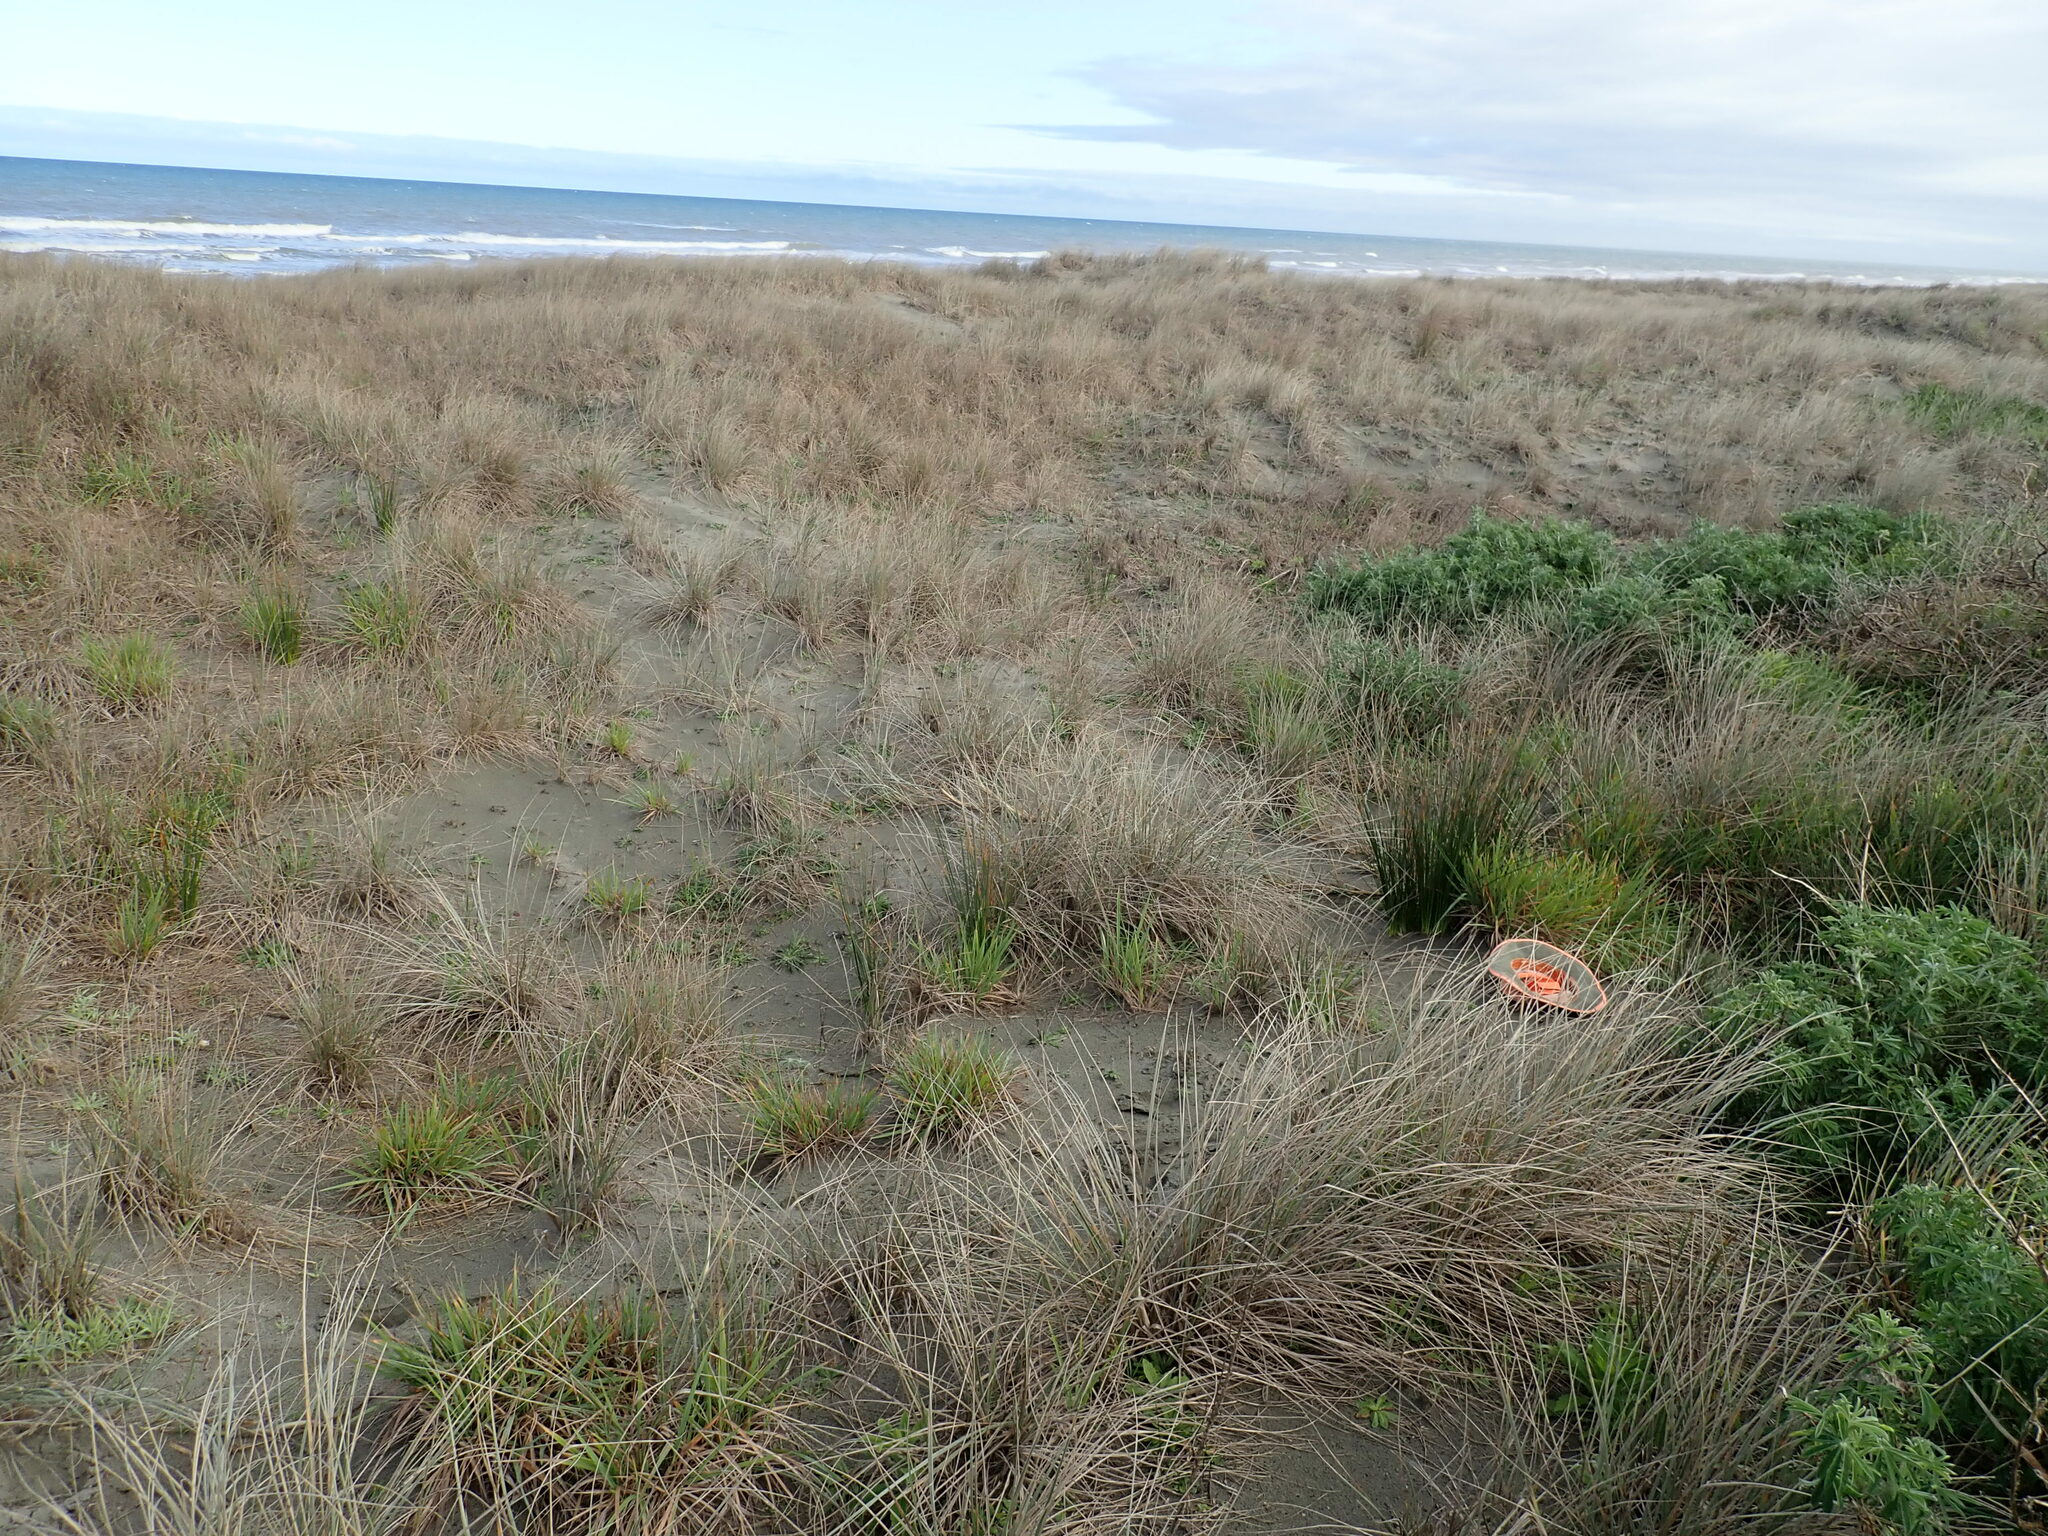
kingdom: Plantae
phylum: Tracheophyta
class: Liliopsida
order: Poales
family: Poaceae
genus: Lachnagrostis
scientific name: Lachnagrostis billardierei
